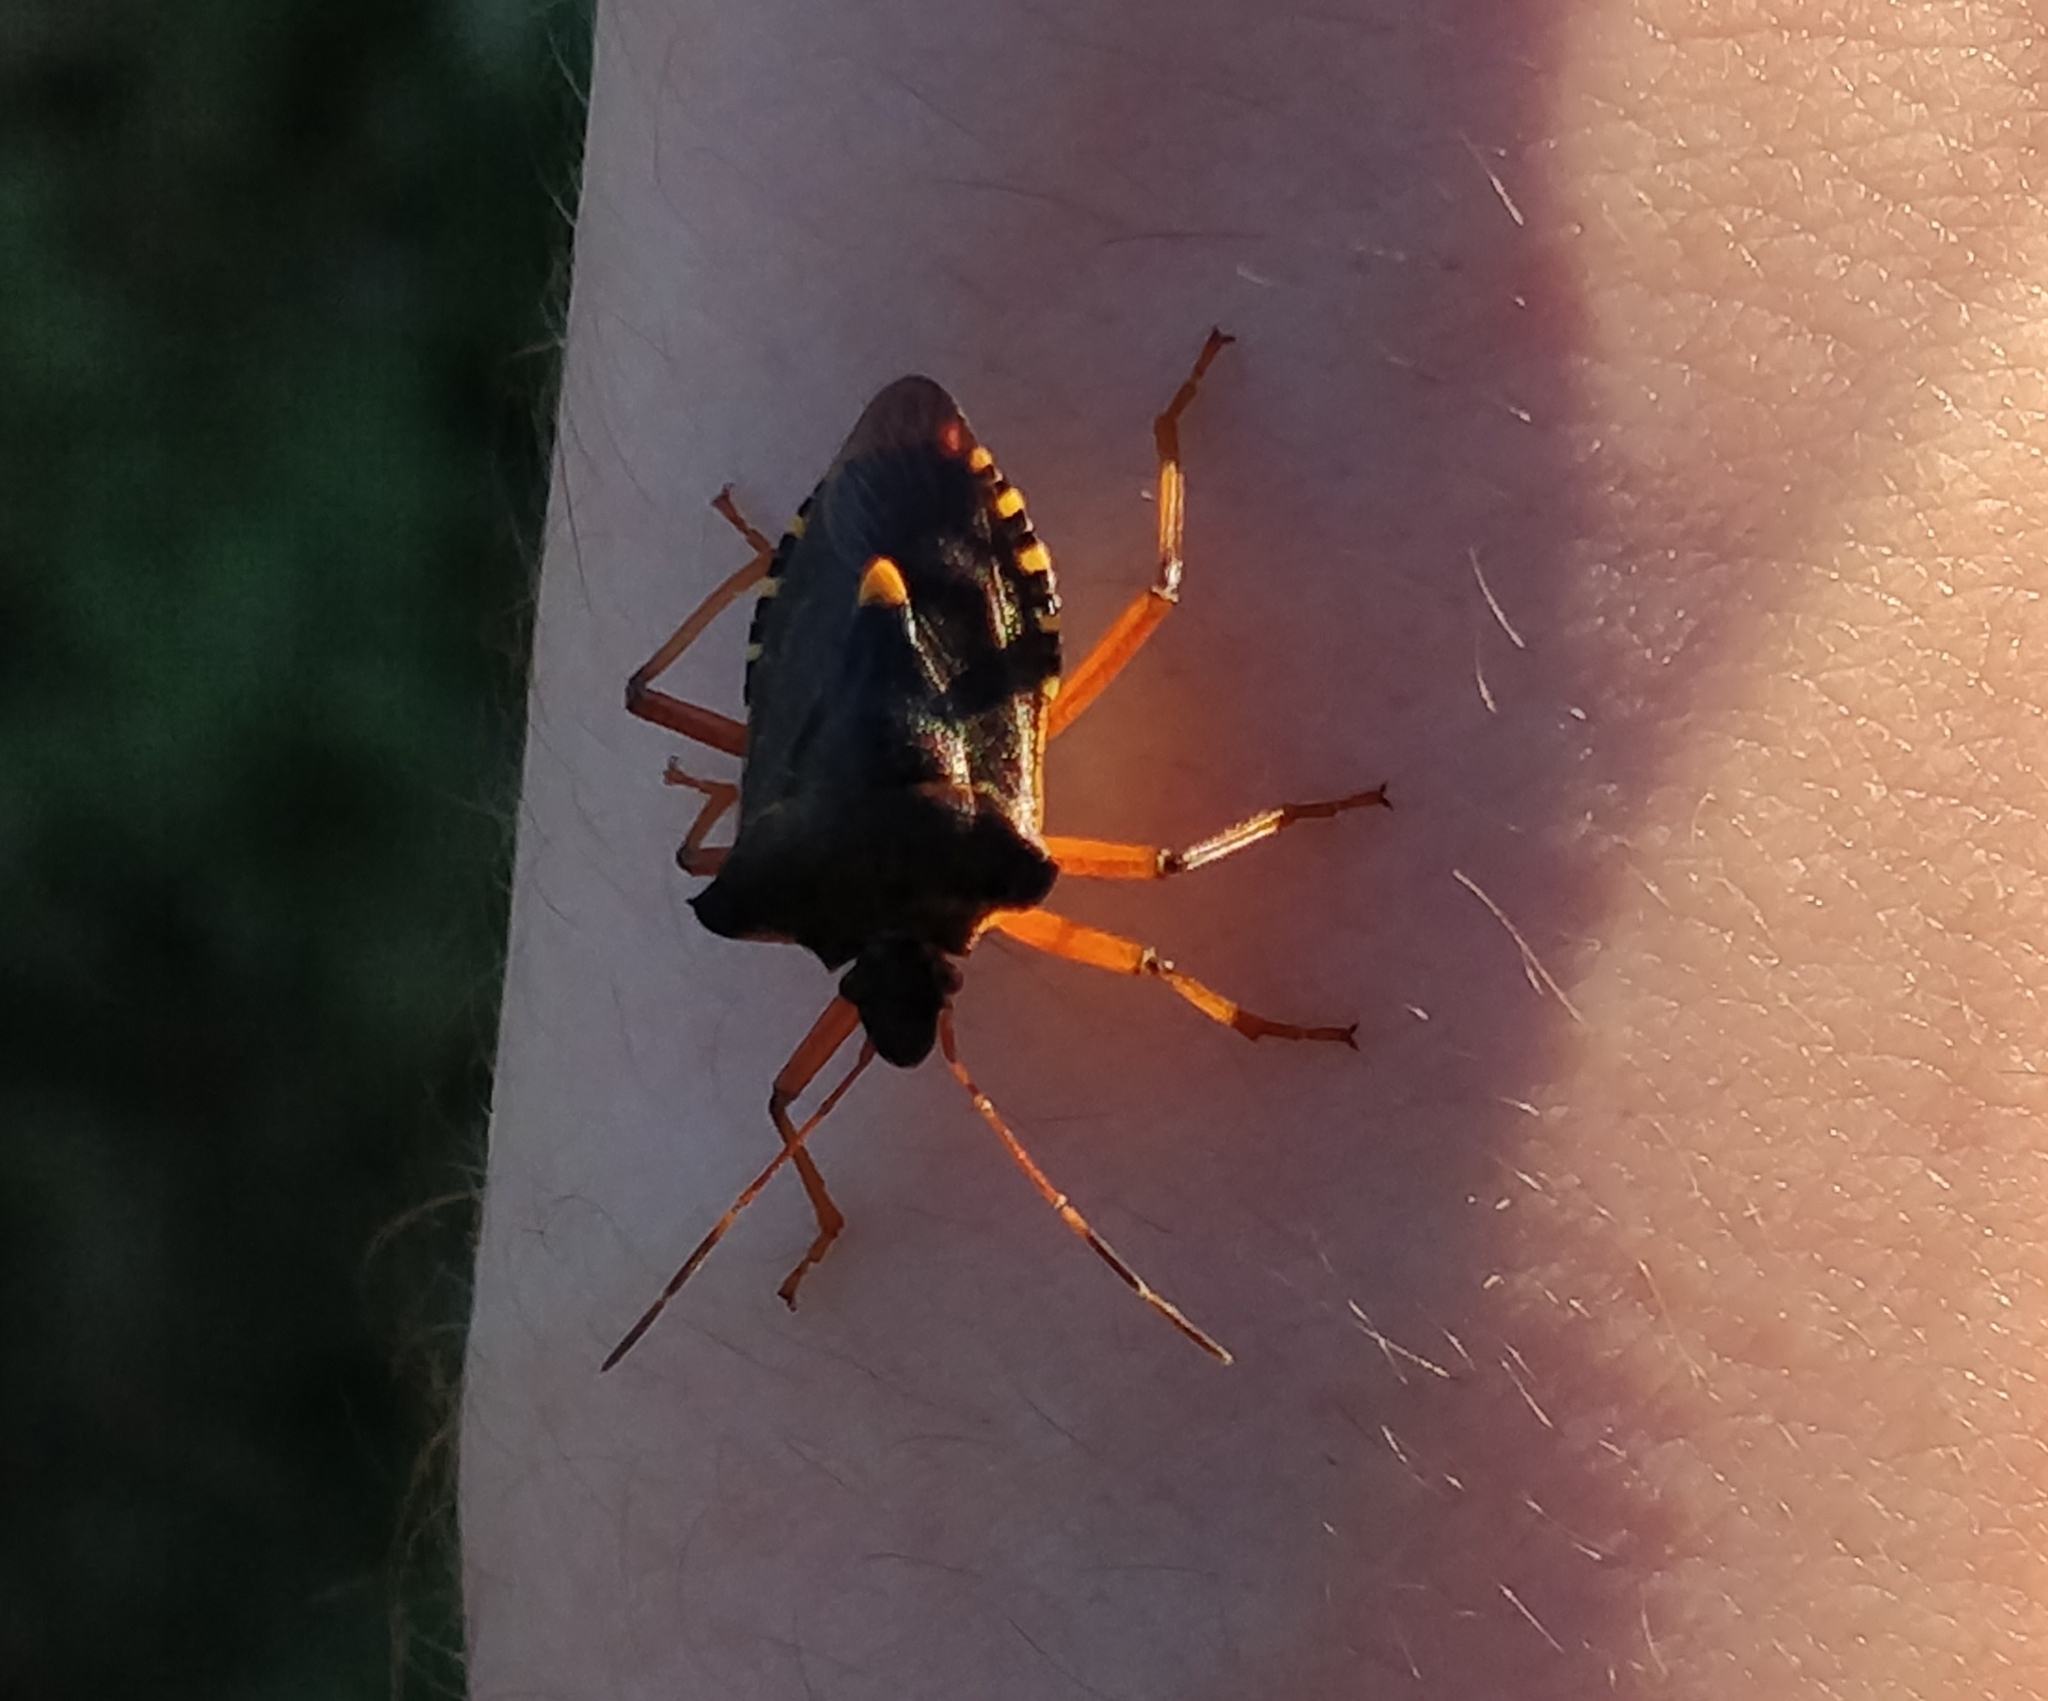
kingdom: Animalia
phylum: Arthropoda
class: Insecta
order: Hemiptera
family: Pentatomidae
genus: Pentatoma
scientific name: Pentatoma rufipes
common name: Forest bug
